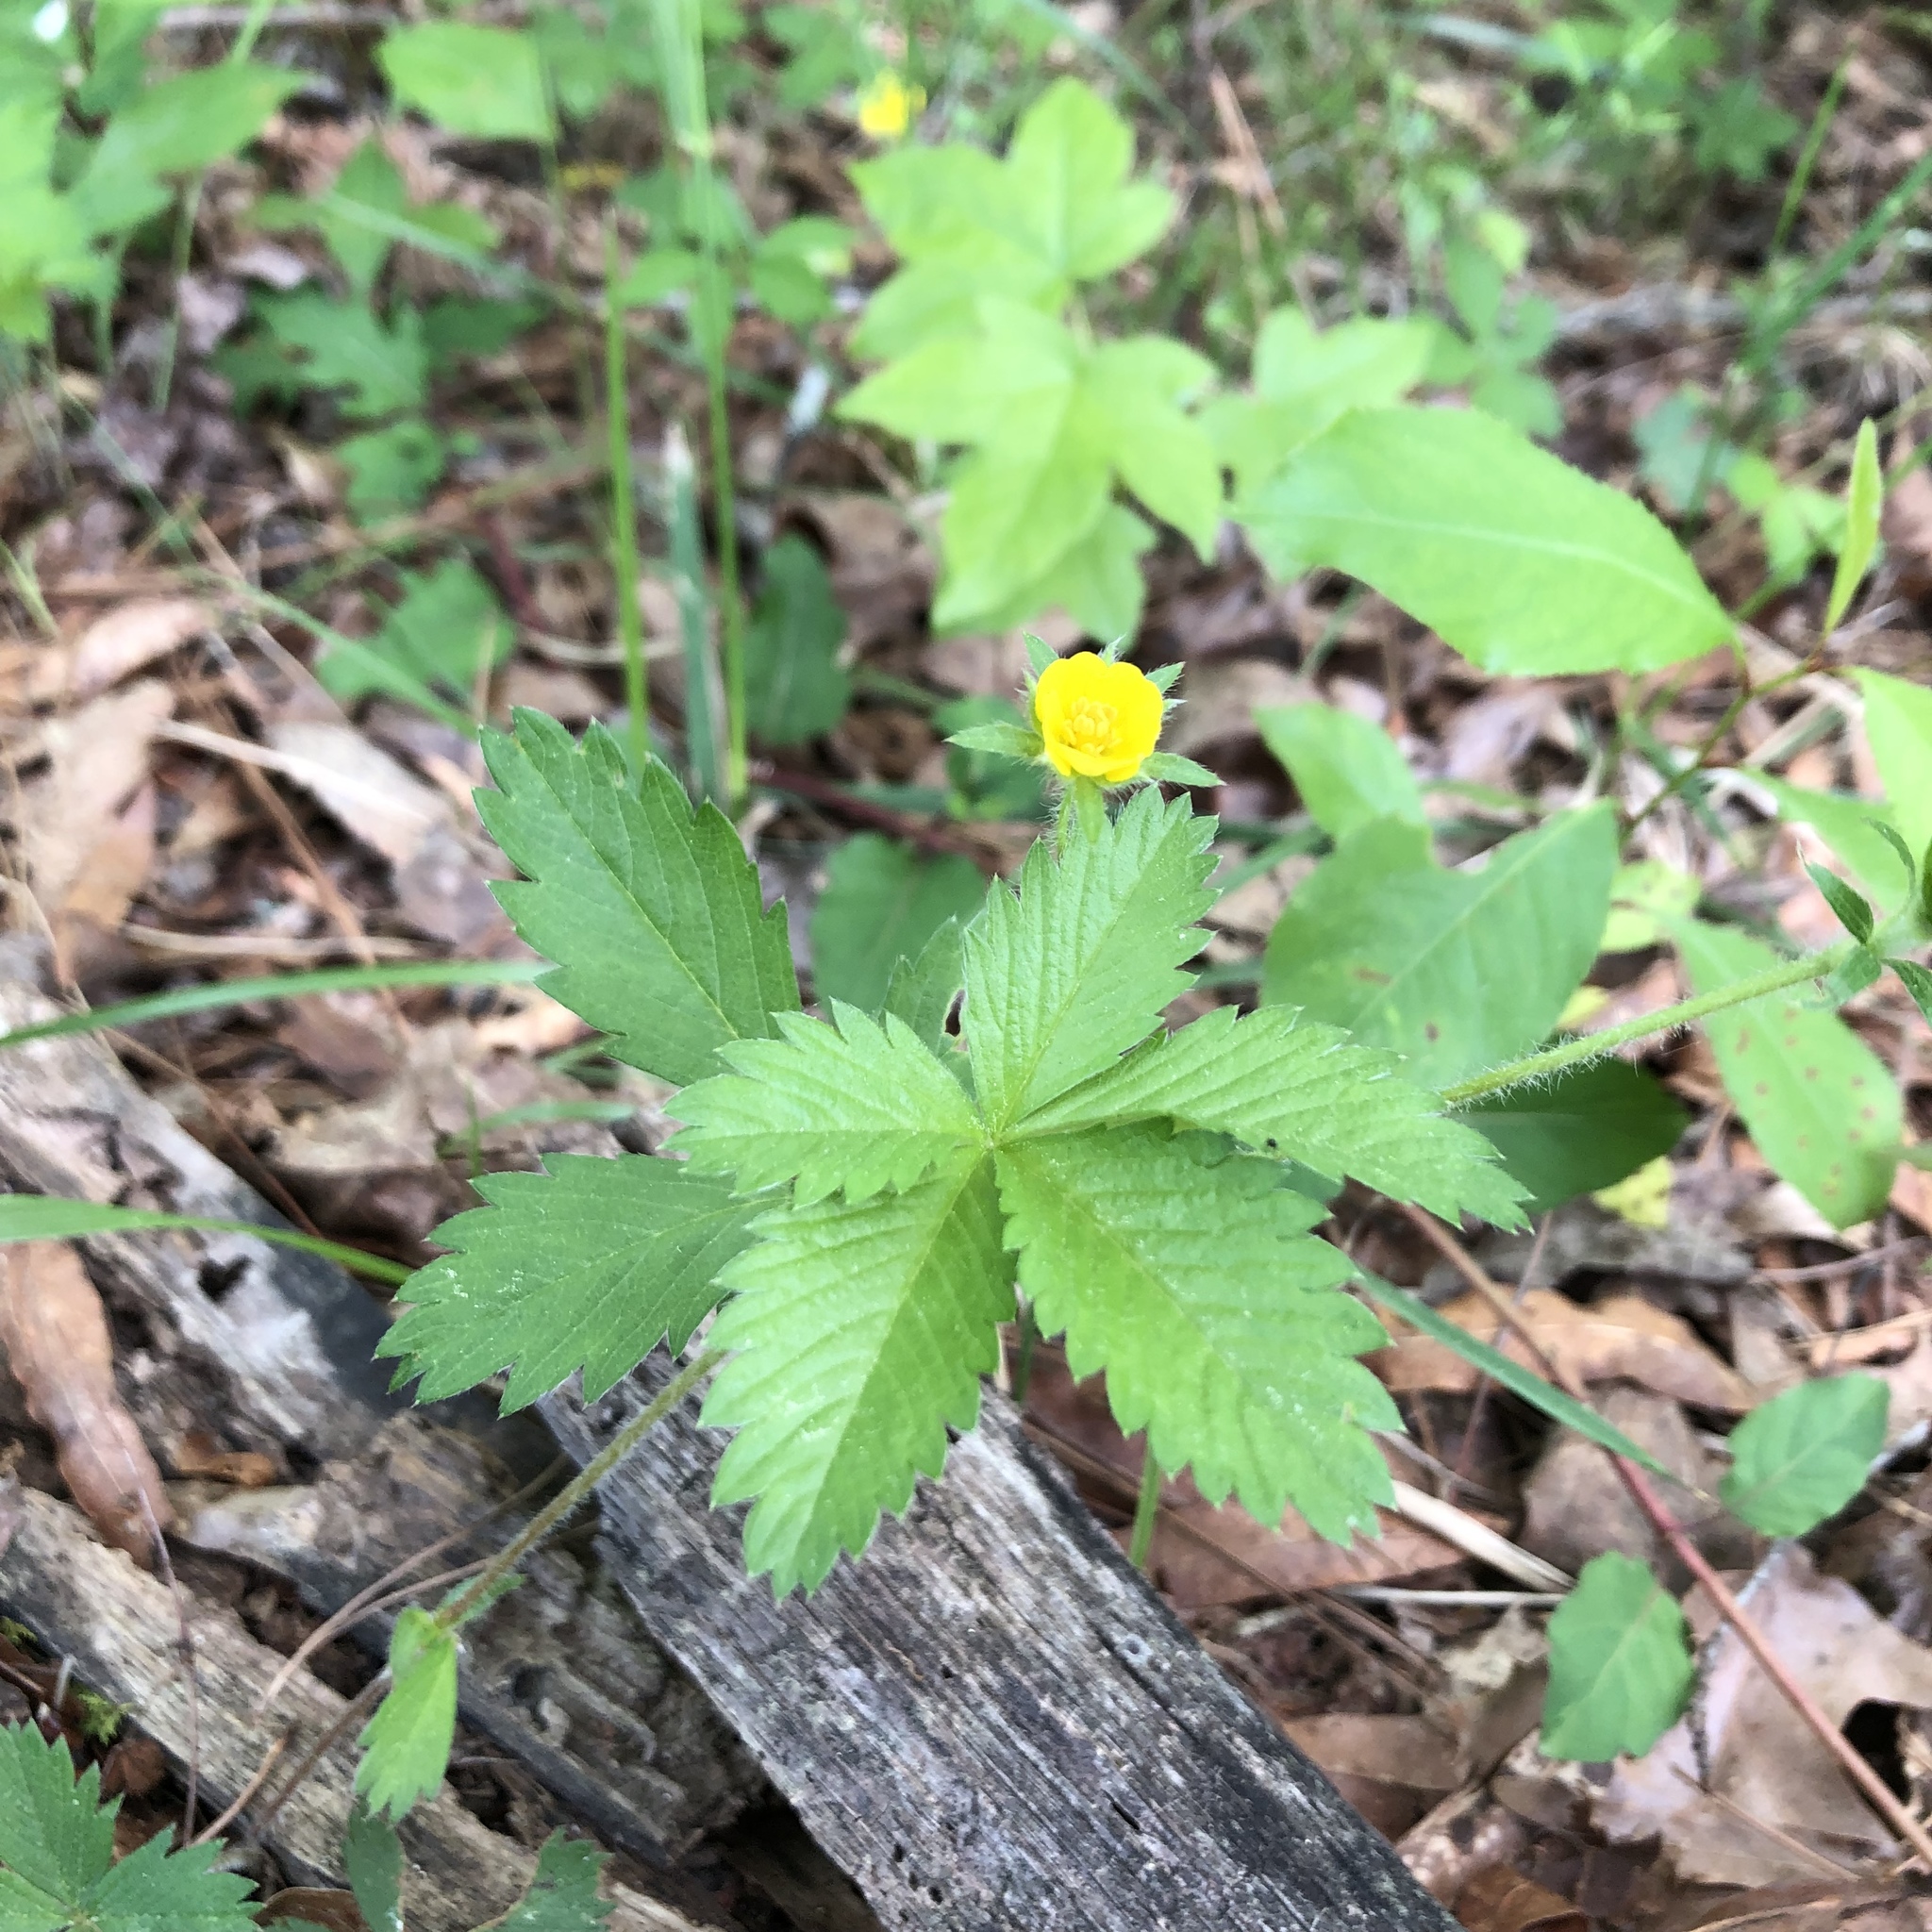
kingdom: Plantae
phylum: Tracheophyta
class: Magnoliopsida
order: Rosales
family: Rosaceae
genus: Potentilla
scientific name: Potentilla simplex
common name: Old field cinquefoil
